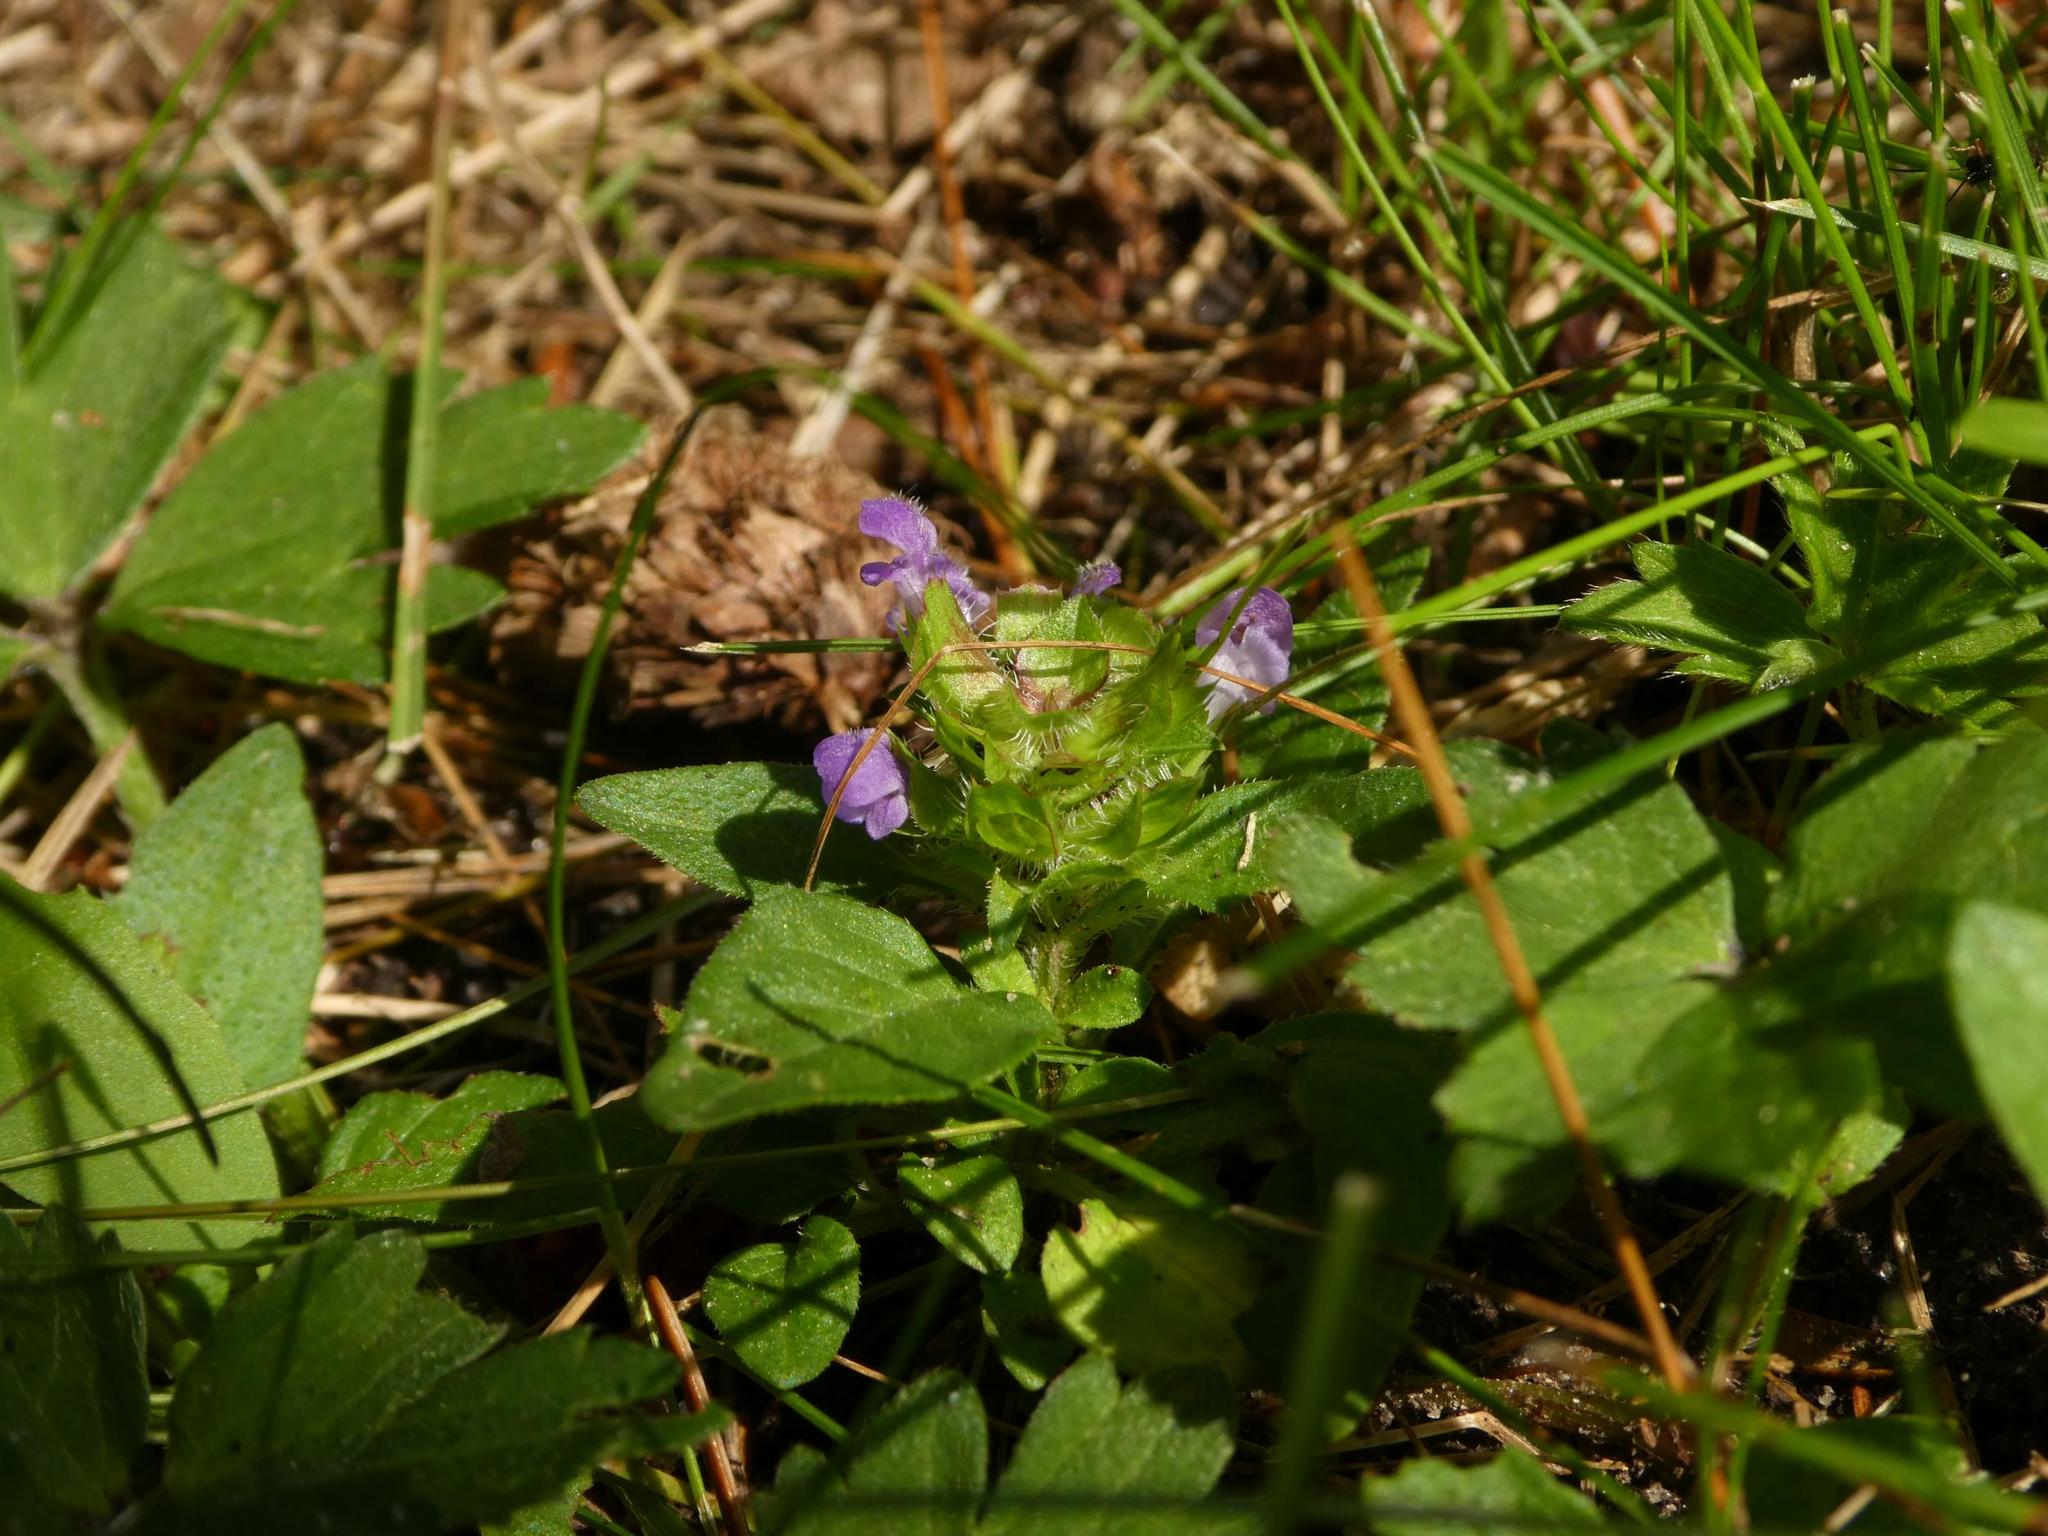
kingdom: Plantae
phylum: Tracheophyta
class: Magnoliopsida
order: Lamiales
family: Lamiaceae
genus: Prunella
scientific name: Prunella vulgaris
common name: Heal-all
